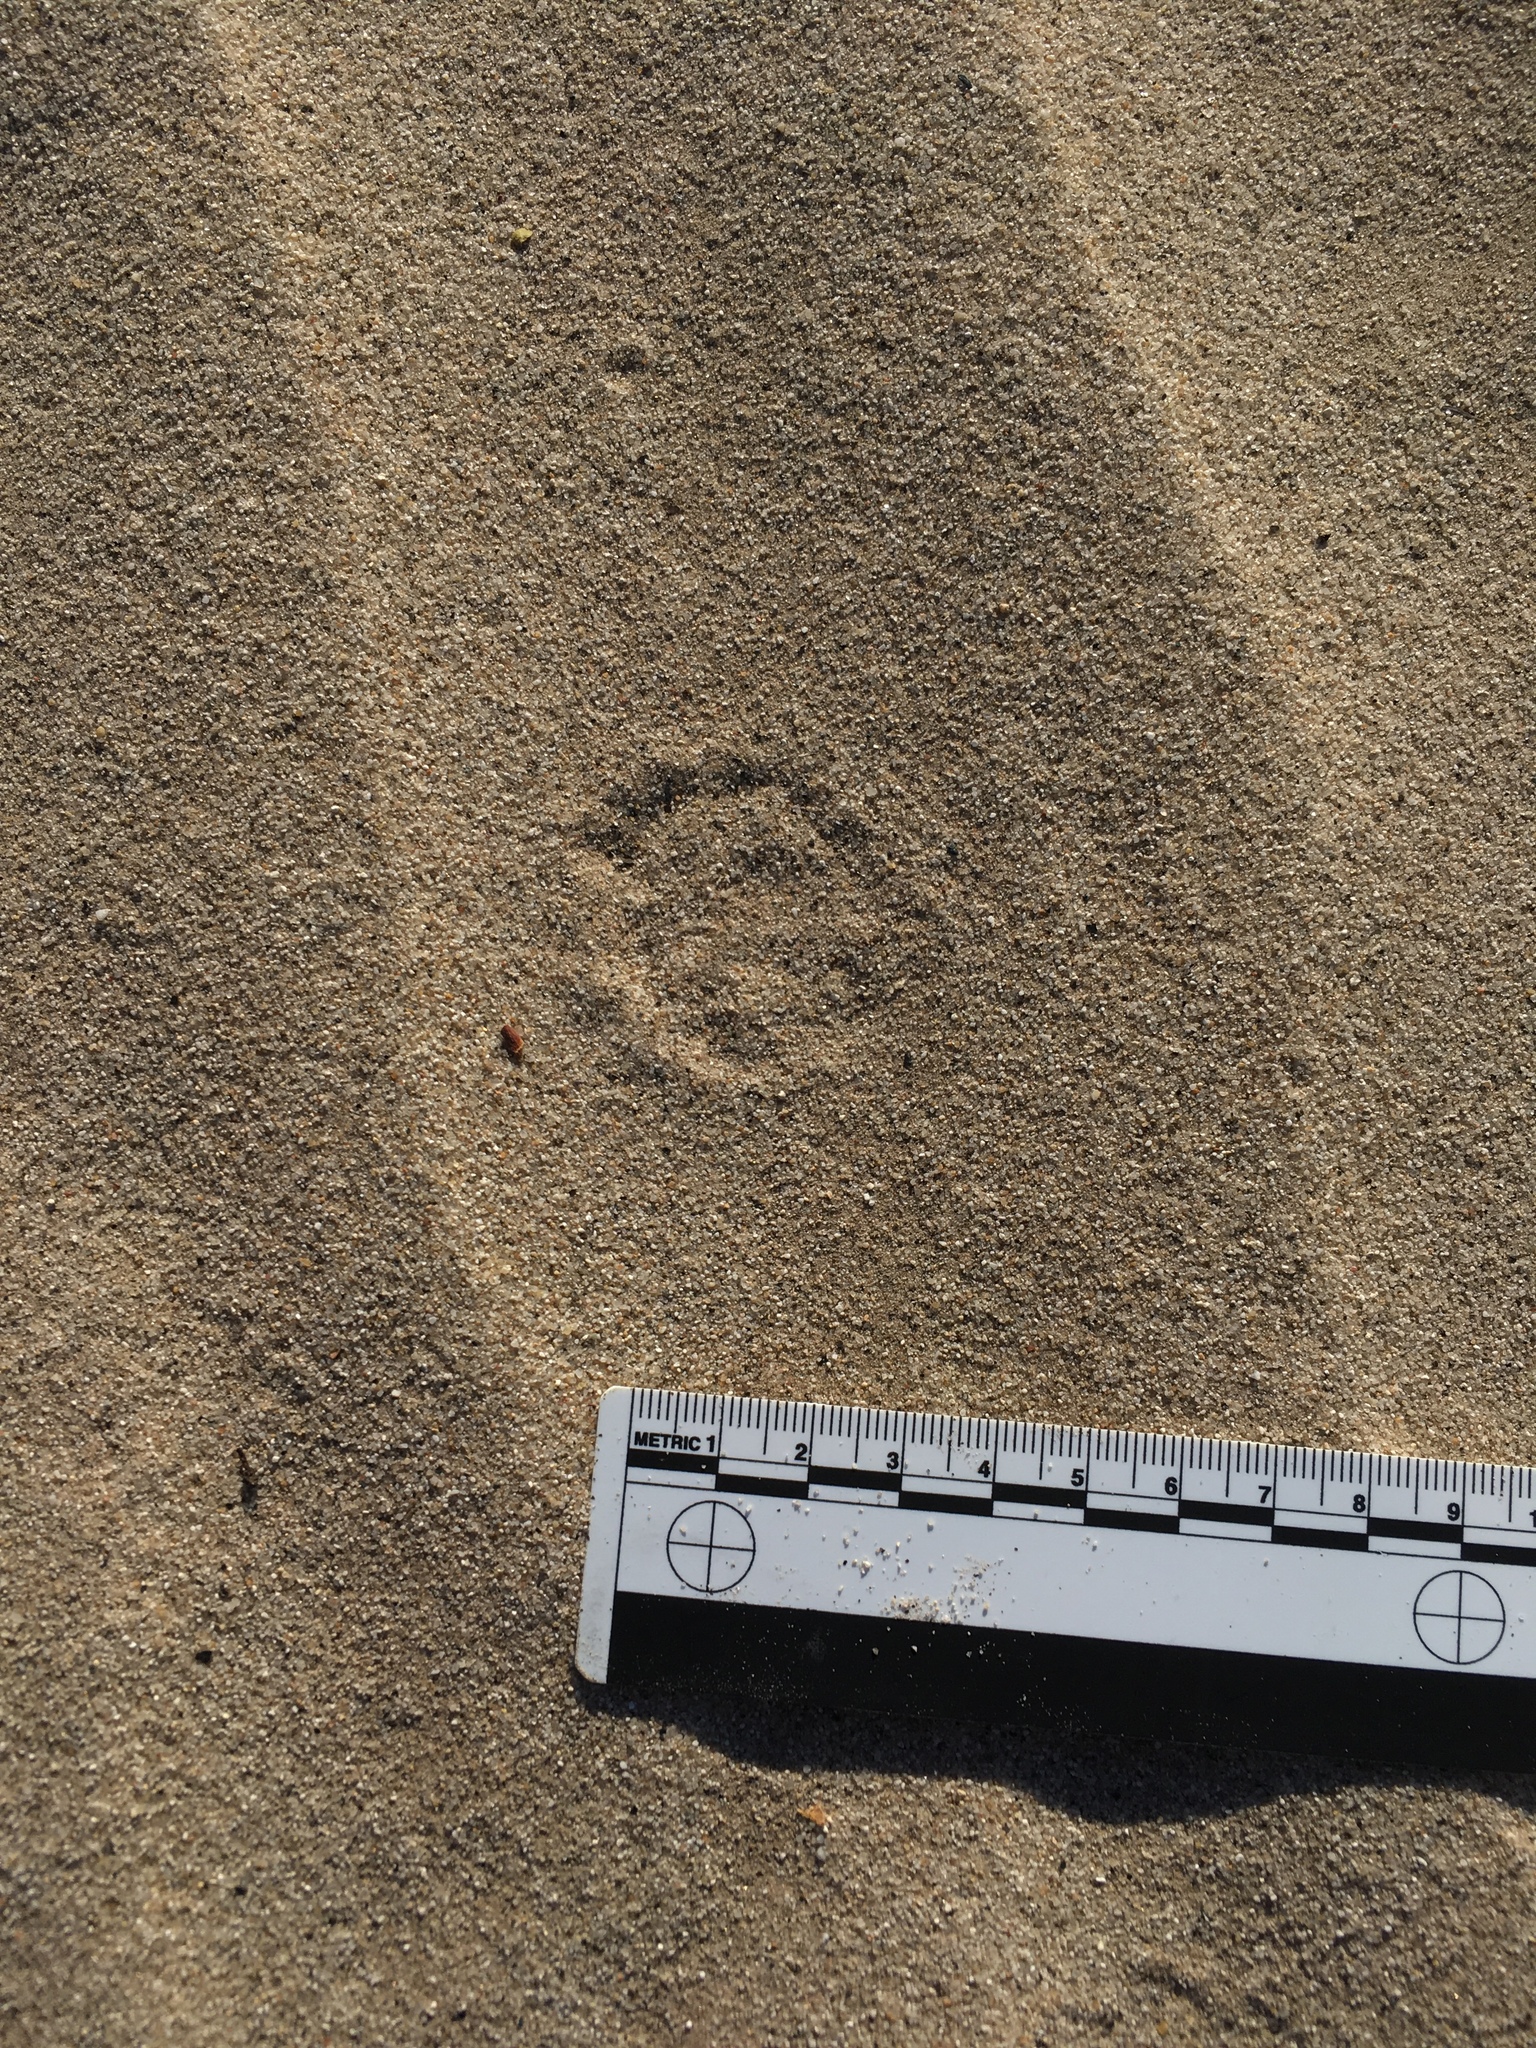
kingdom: Animalia
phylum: Chordata
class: Mammalia
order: Rodentia
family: Heteromyidae
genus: Dipodomys
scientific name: Dipodomys deserti
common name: Desert kangaroo rat
